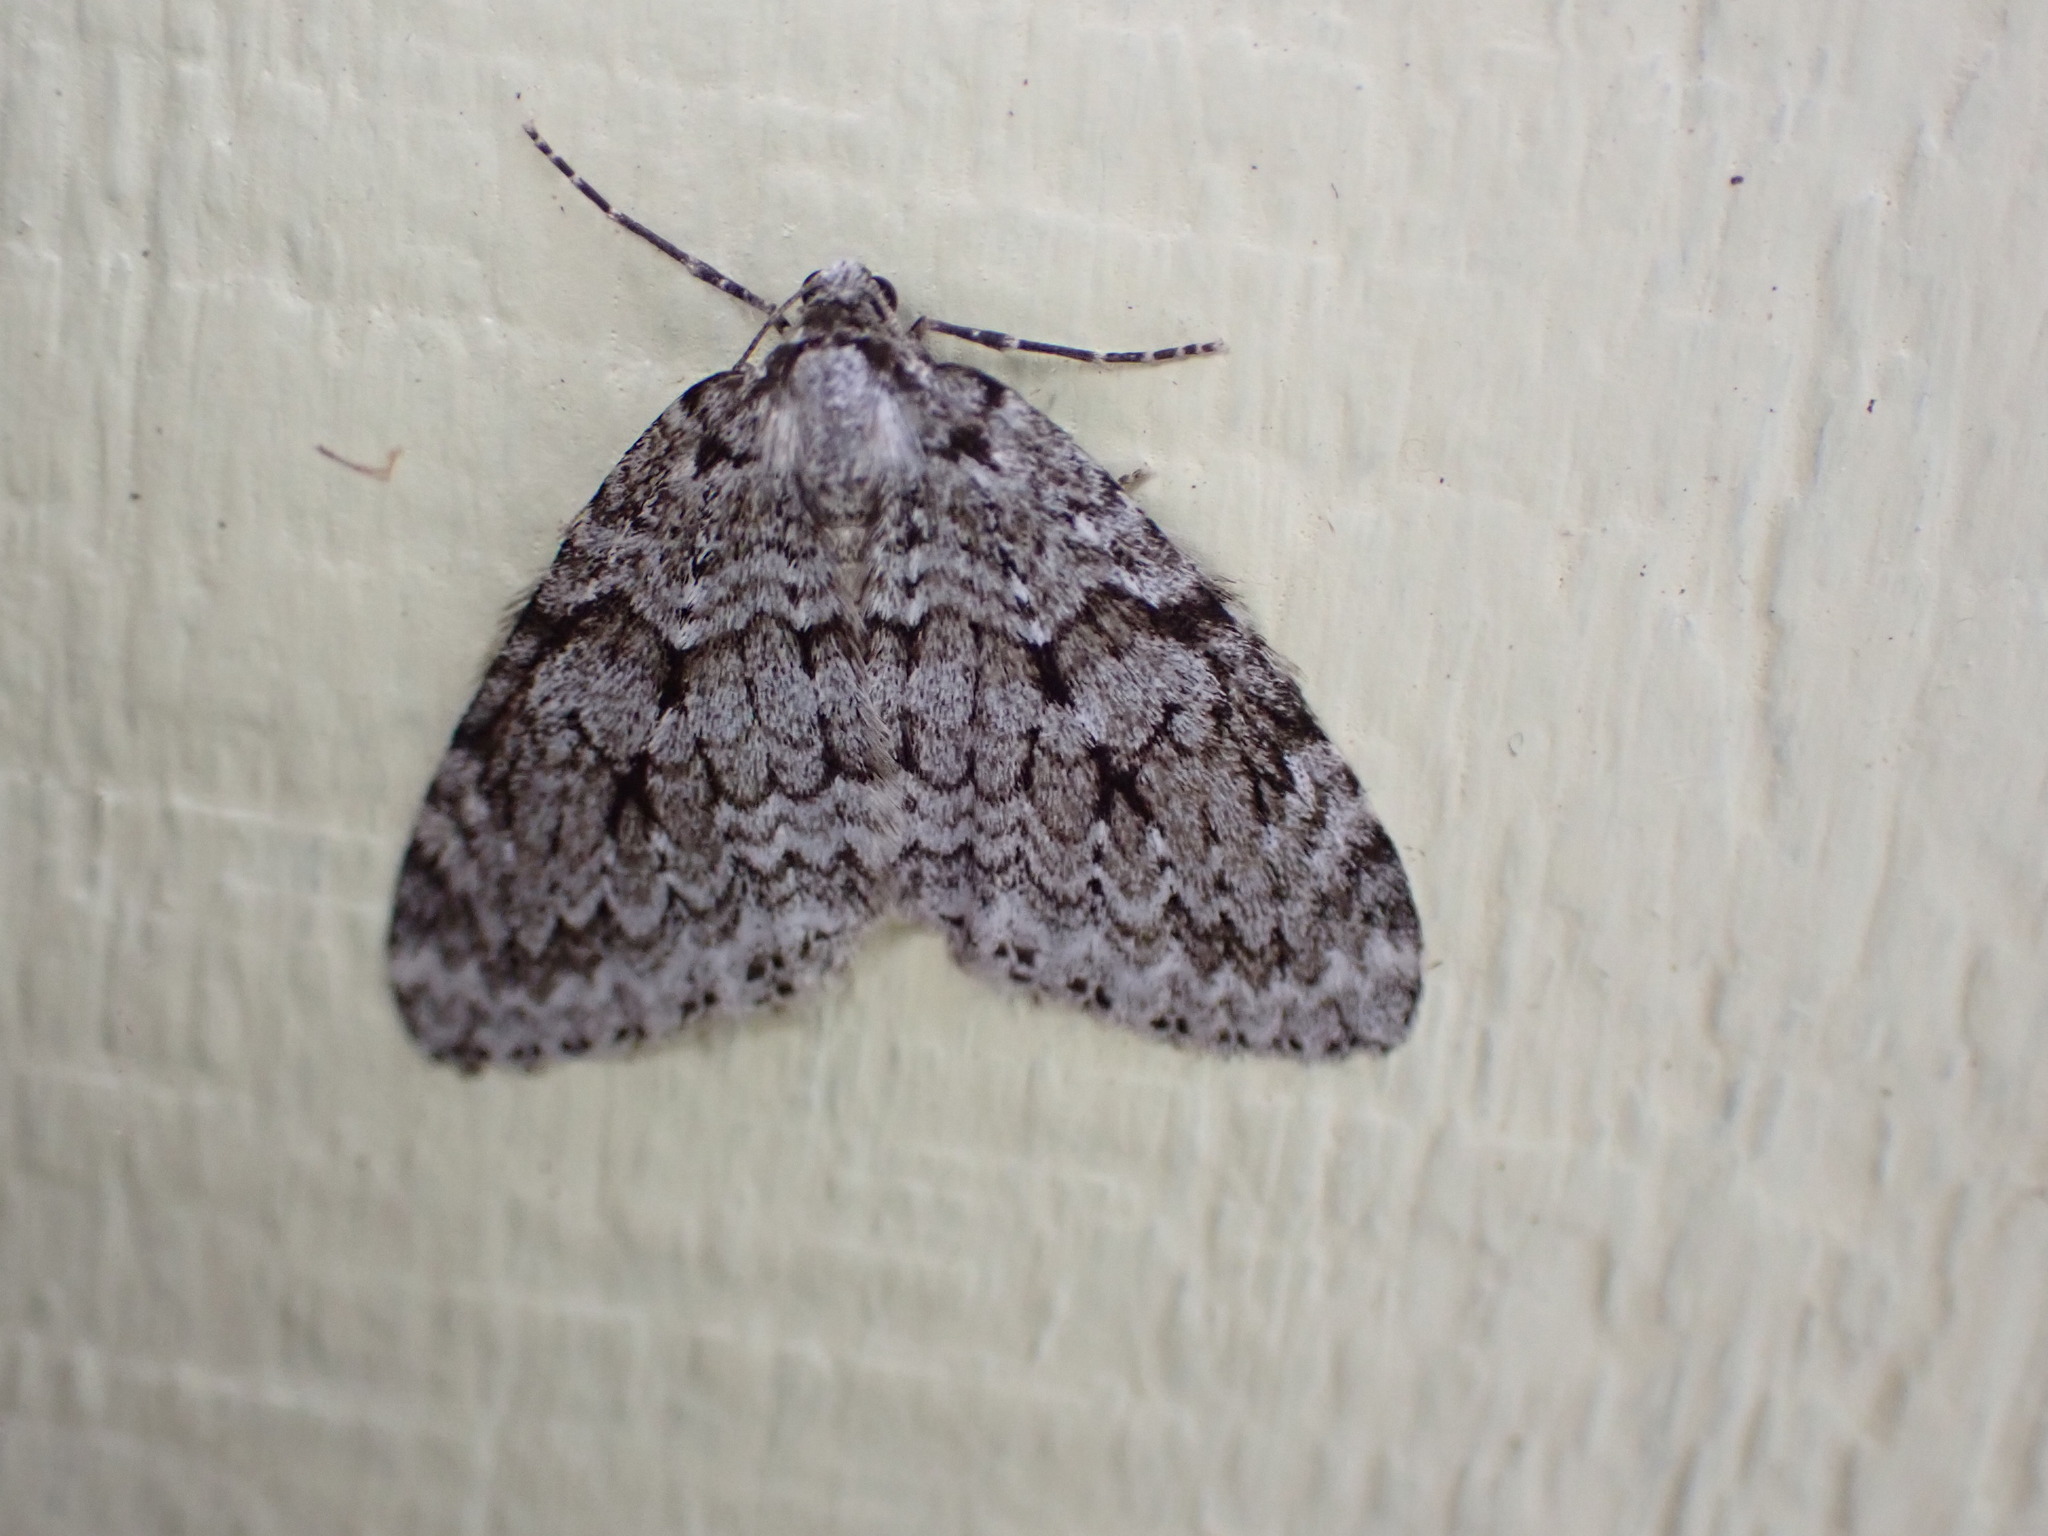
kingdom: Animalia
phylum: Arthropoda
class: Insecta
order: Lepidoptera
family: Geometridae
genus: Epirrita
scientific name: Epirrita autumnata
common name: Autumnal moth
